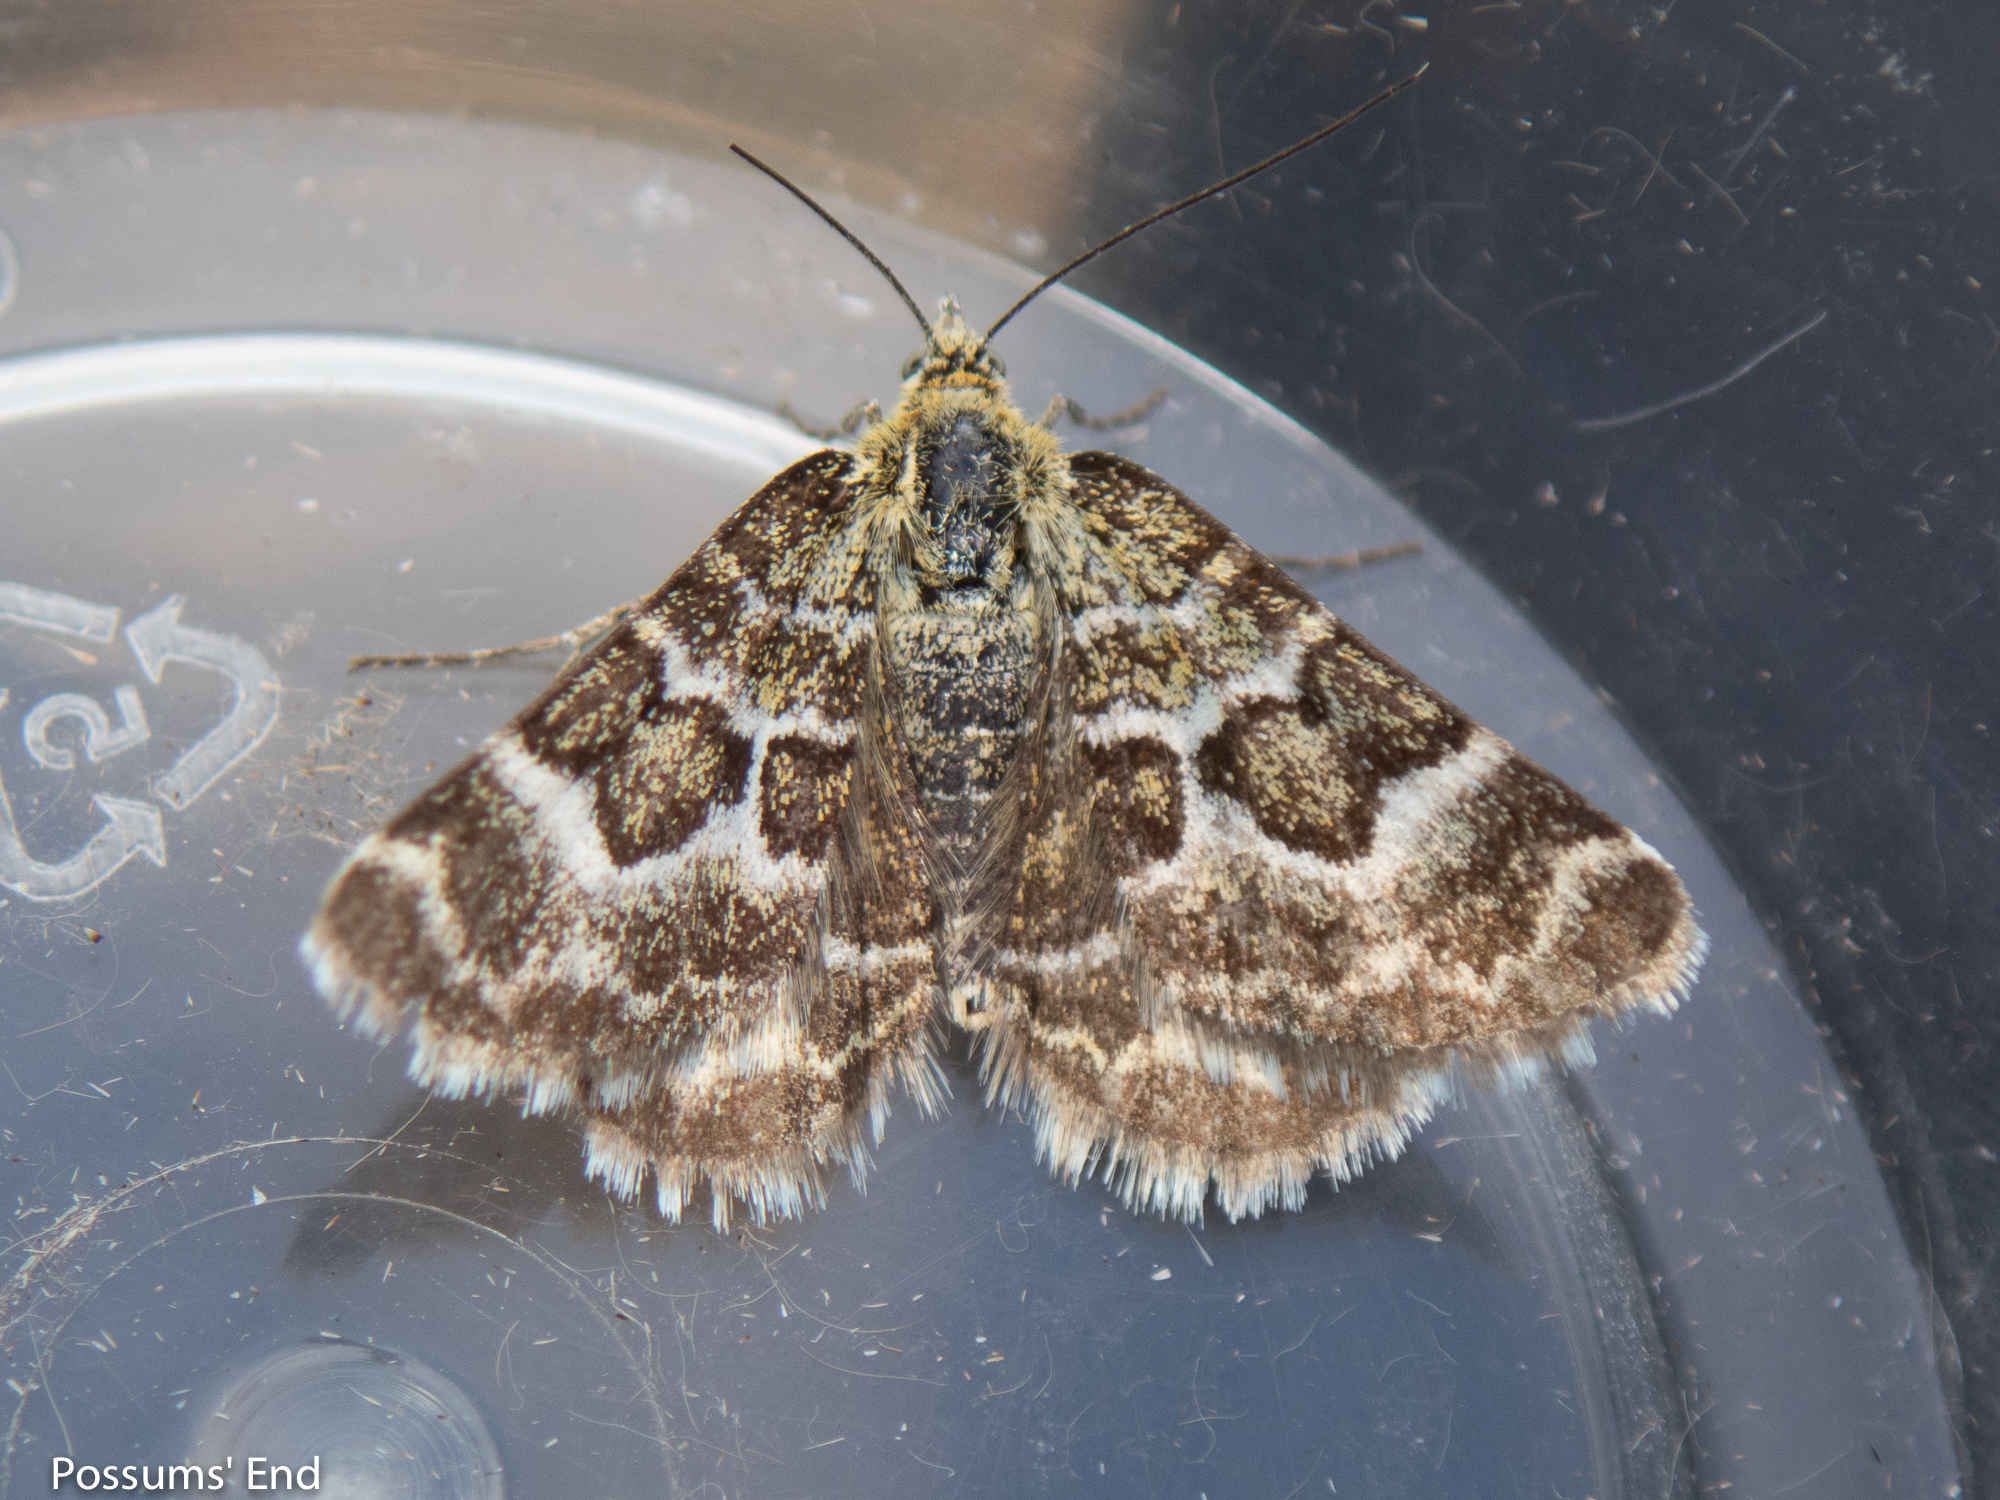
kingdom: Animalia
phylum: Arthropoda
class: Insecta
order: Lepidoptera
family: Geometridae
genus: Notoreas
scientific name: Notoreas paradelpha
